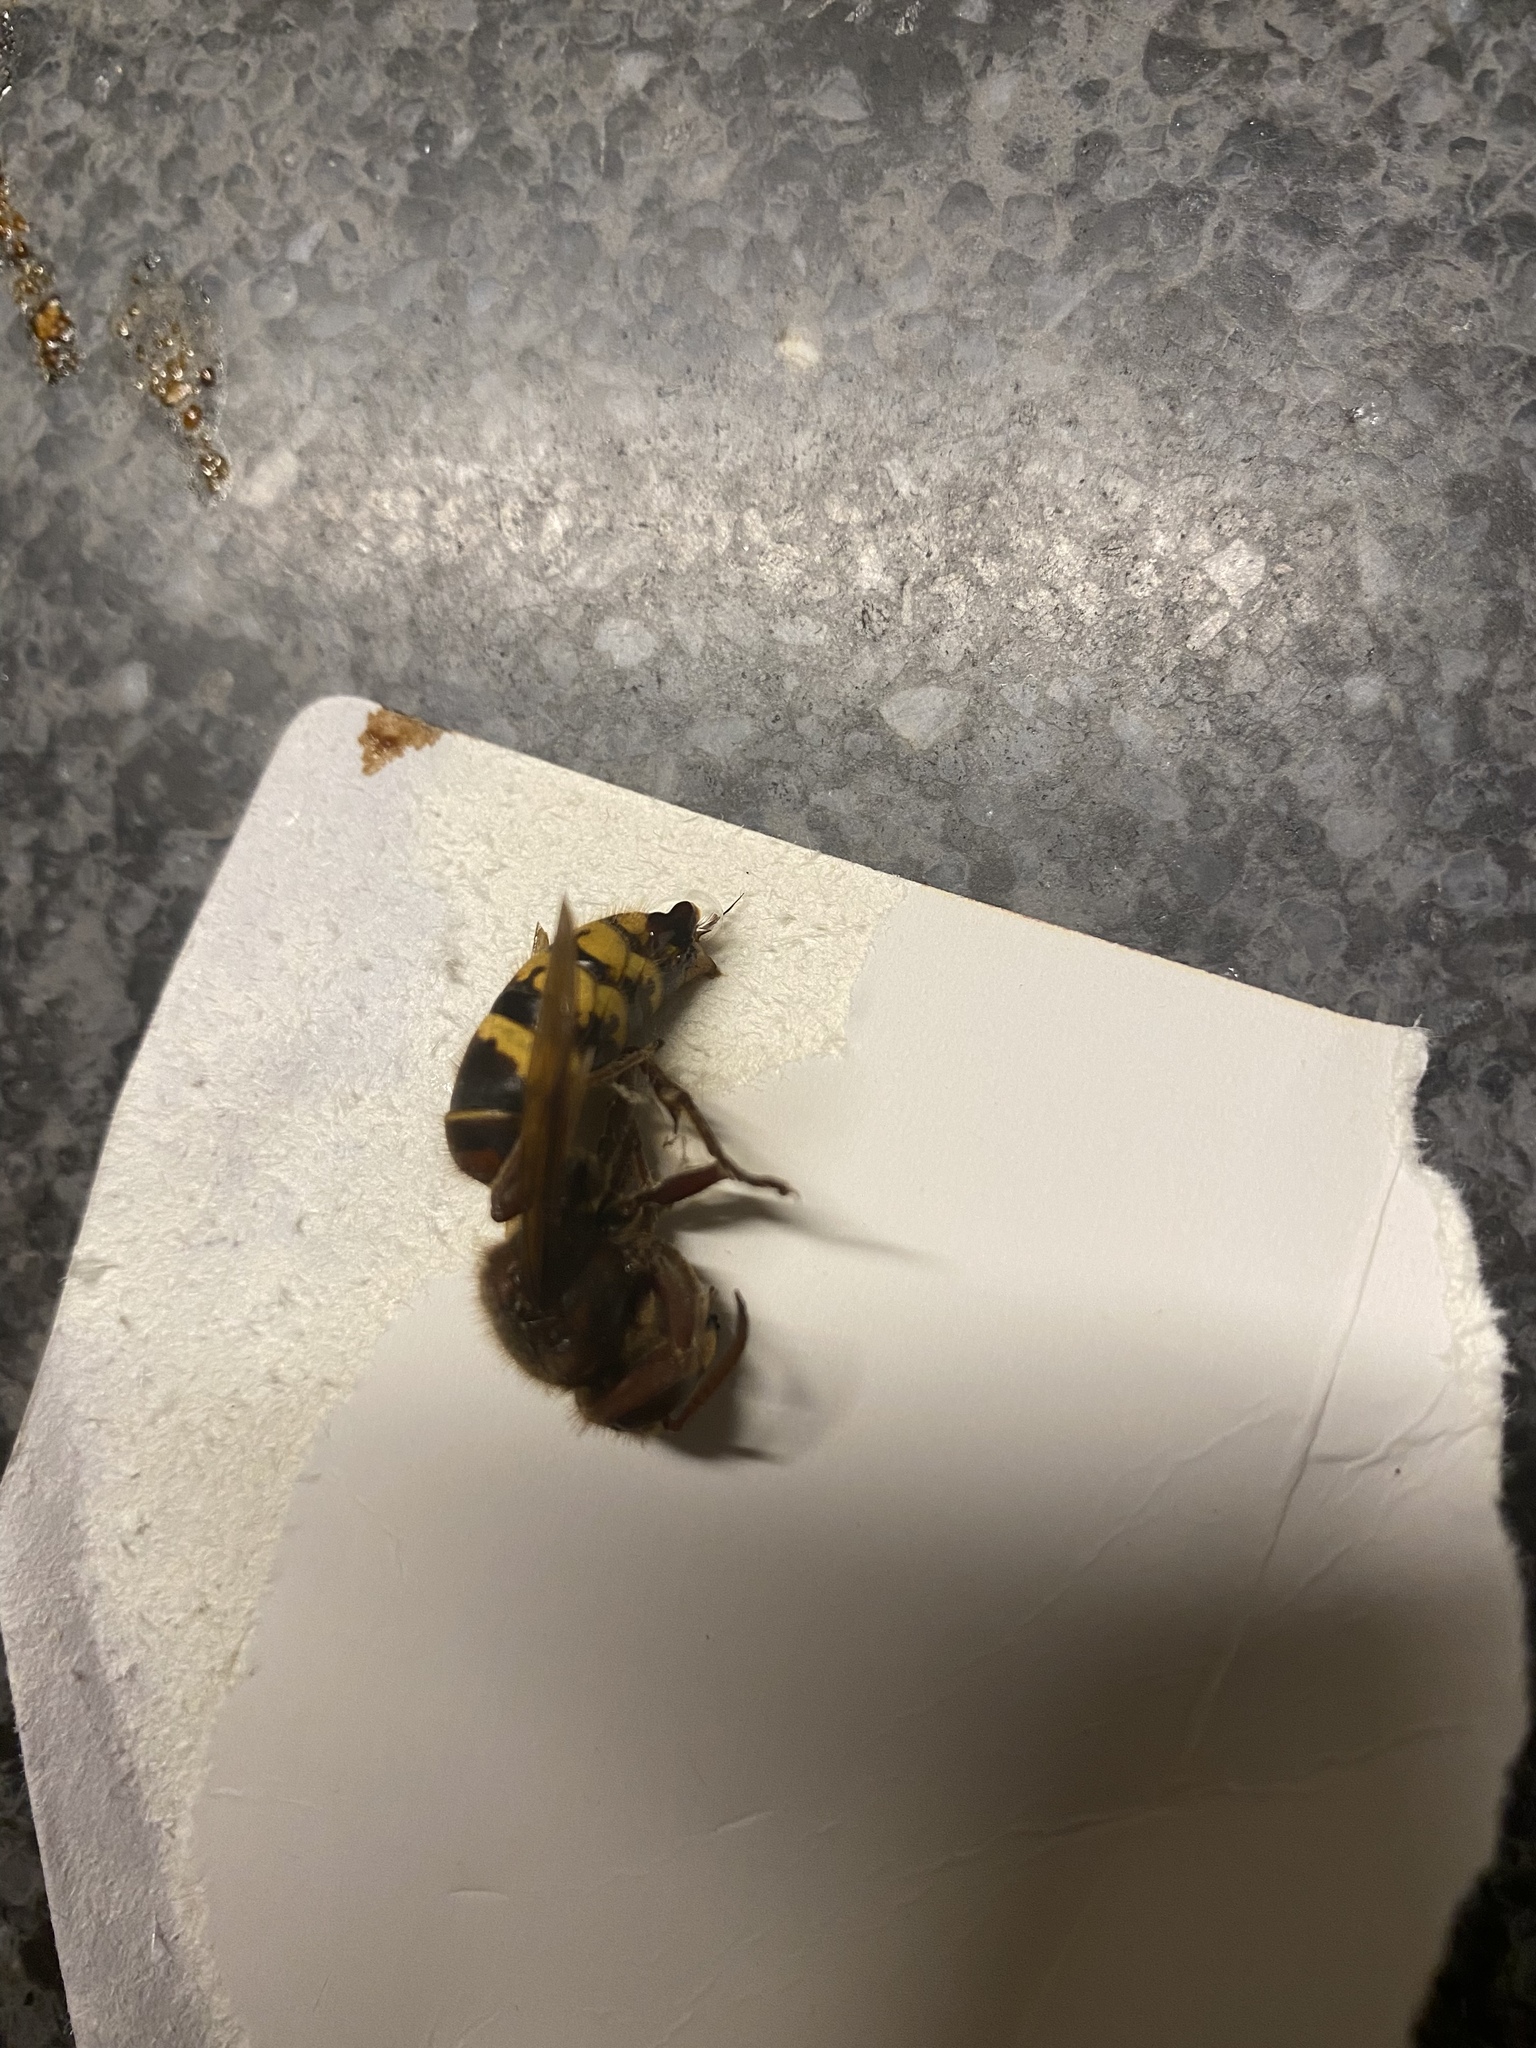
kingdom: Animalia
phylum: Arthropoda
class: Insecta
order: Hymenoptera
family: Vespidae
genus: Vespa
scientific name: Vespa crabro
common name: Hornet
